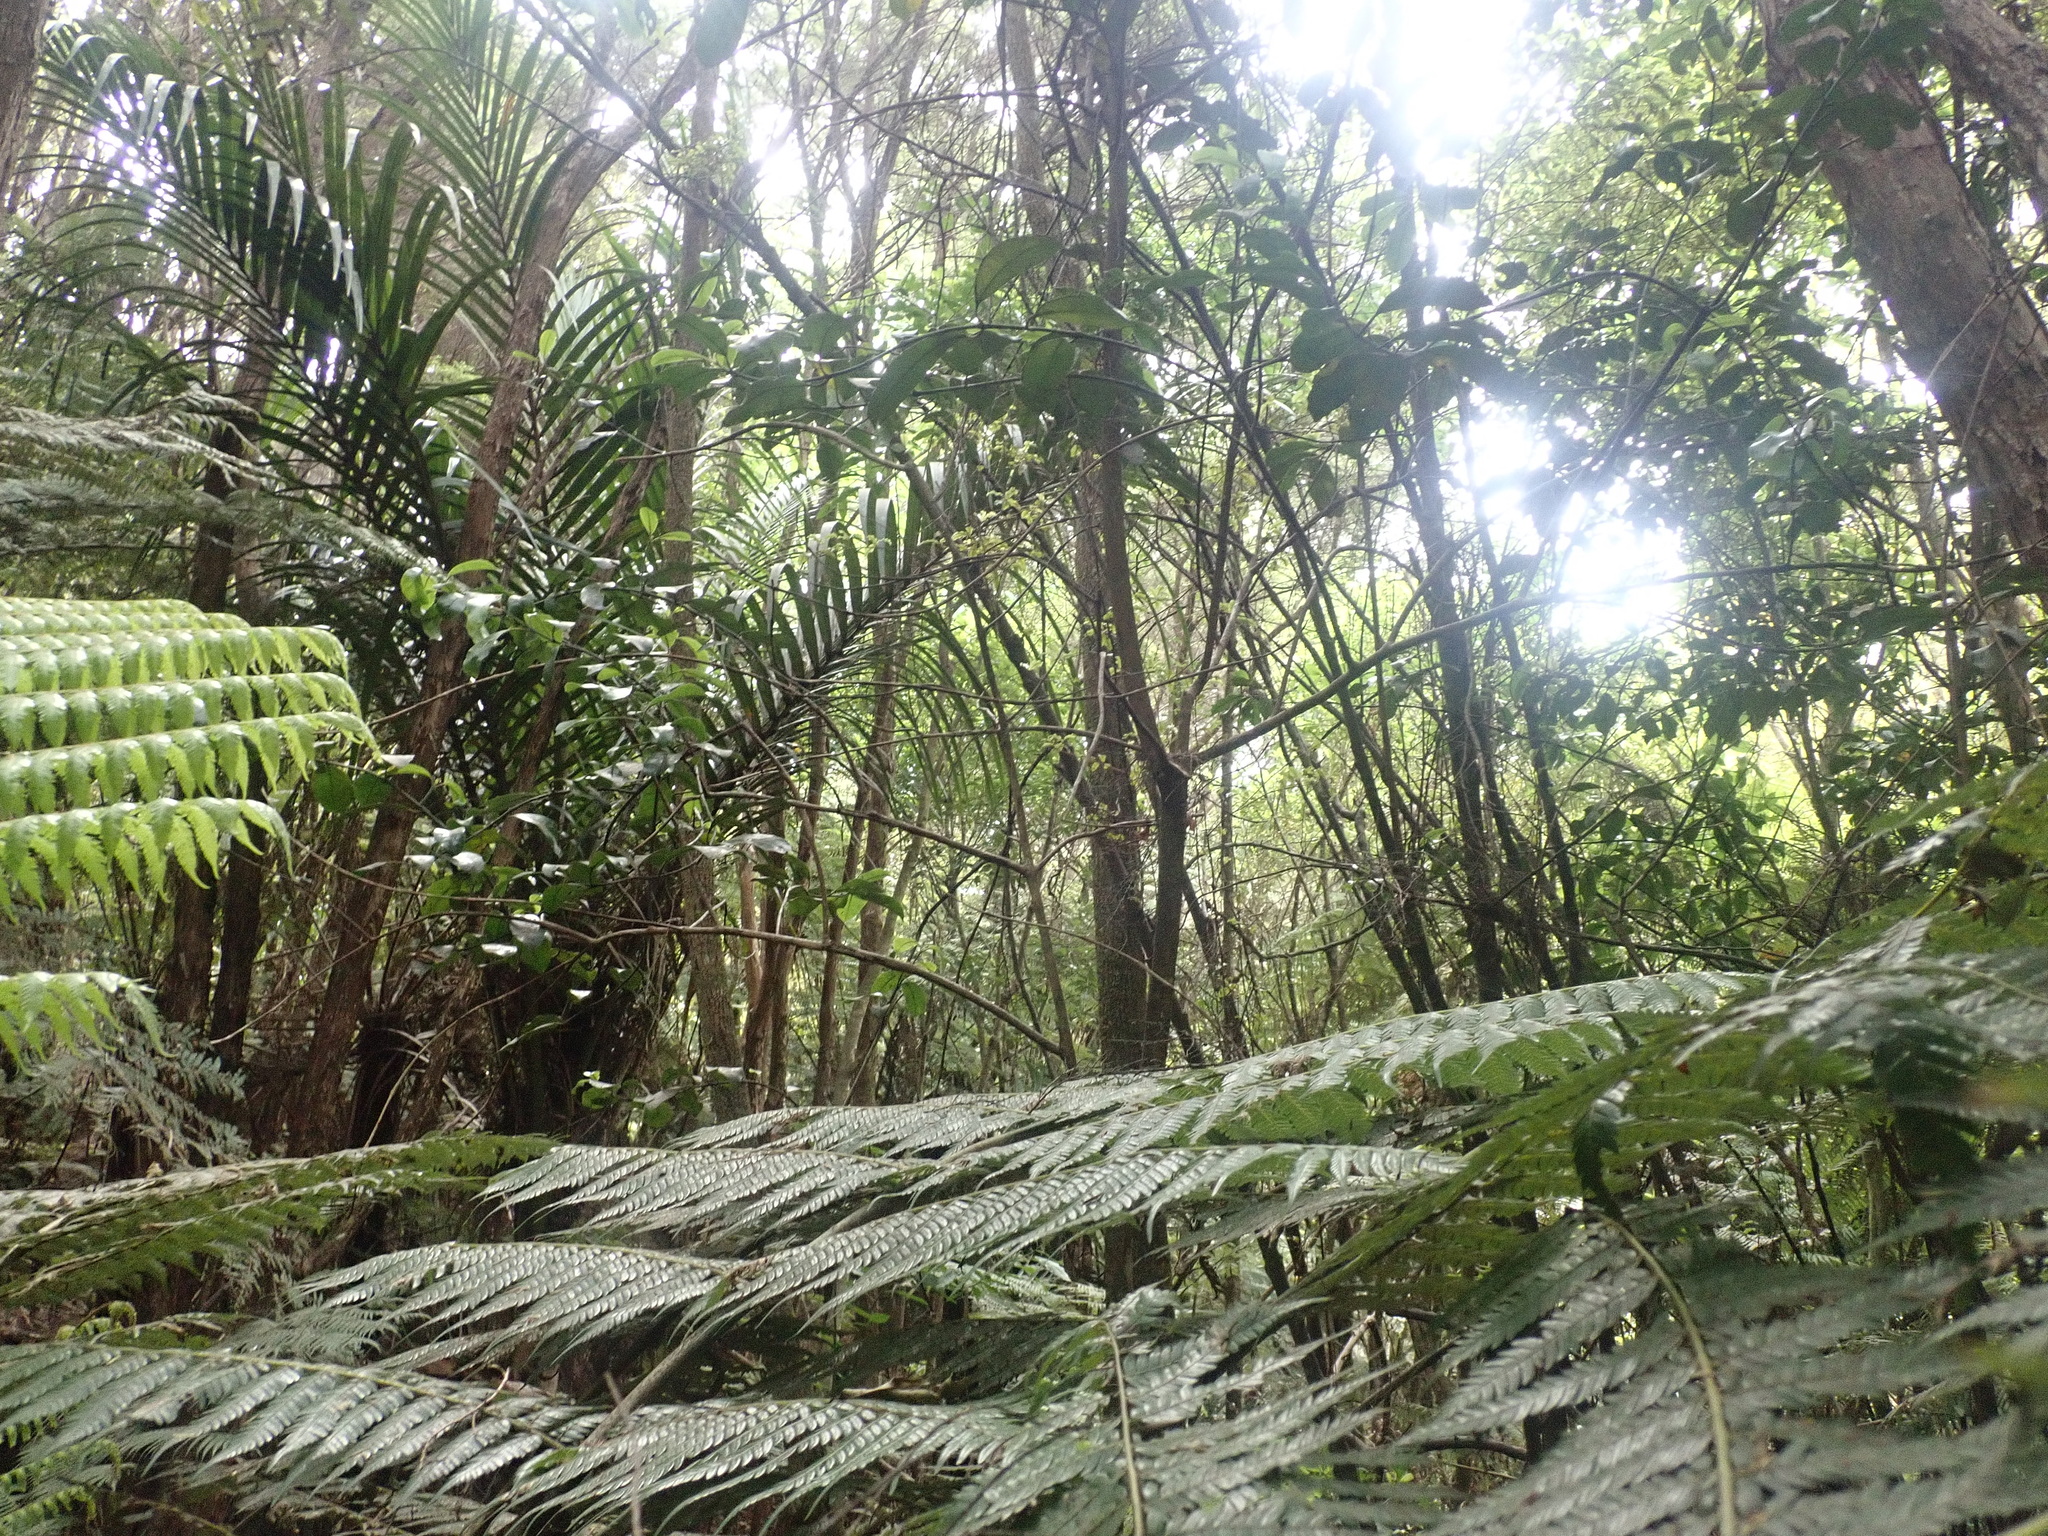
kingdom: Plantae
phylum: Tracheophyta
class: Liliopsida
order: Arecales
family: Arecaceae
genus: Rhopalostylis
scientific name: Rhopalostylis sapida
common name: Feather-duster palm
